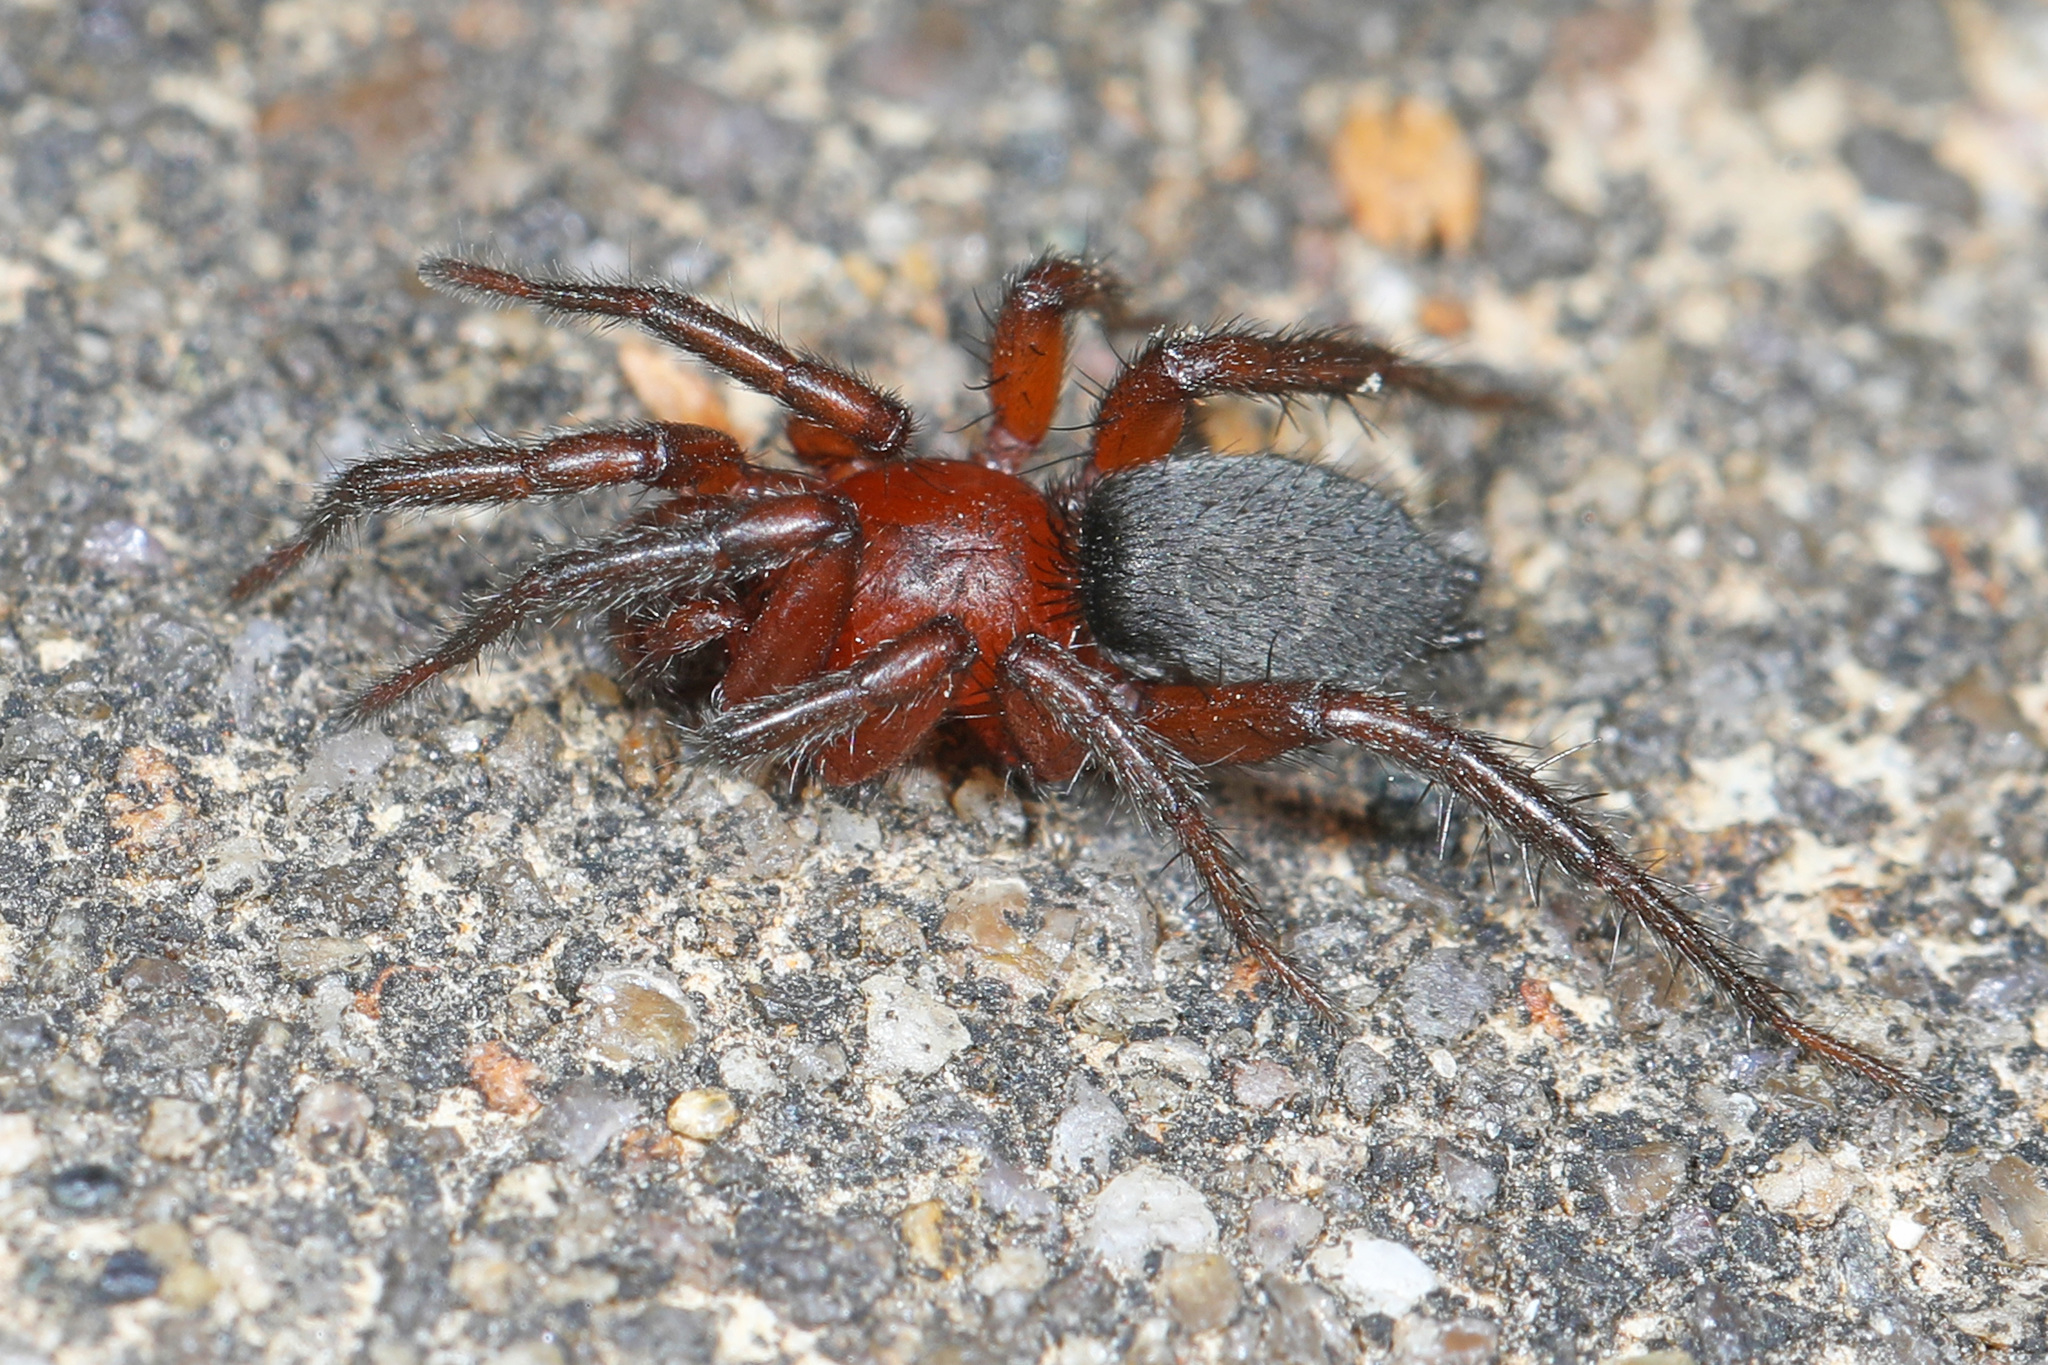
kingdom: Animalia
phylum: Arthropoda
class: Arachnida
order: Araneae
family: Gnaphosidae
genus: Gnaphosa
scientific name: Gnaphosa sericata
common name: Ground spiders
